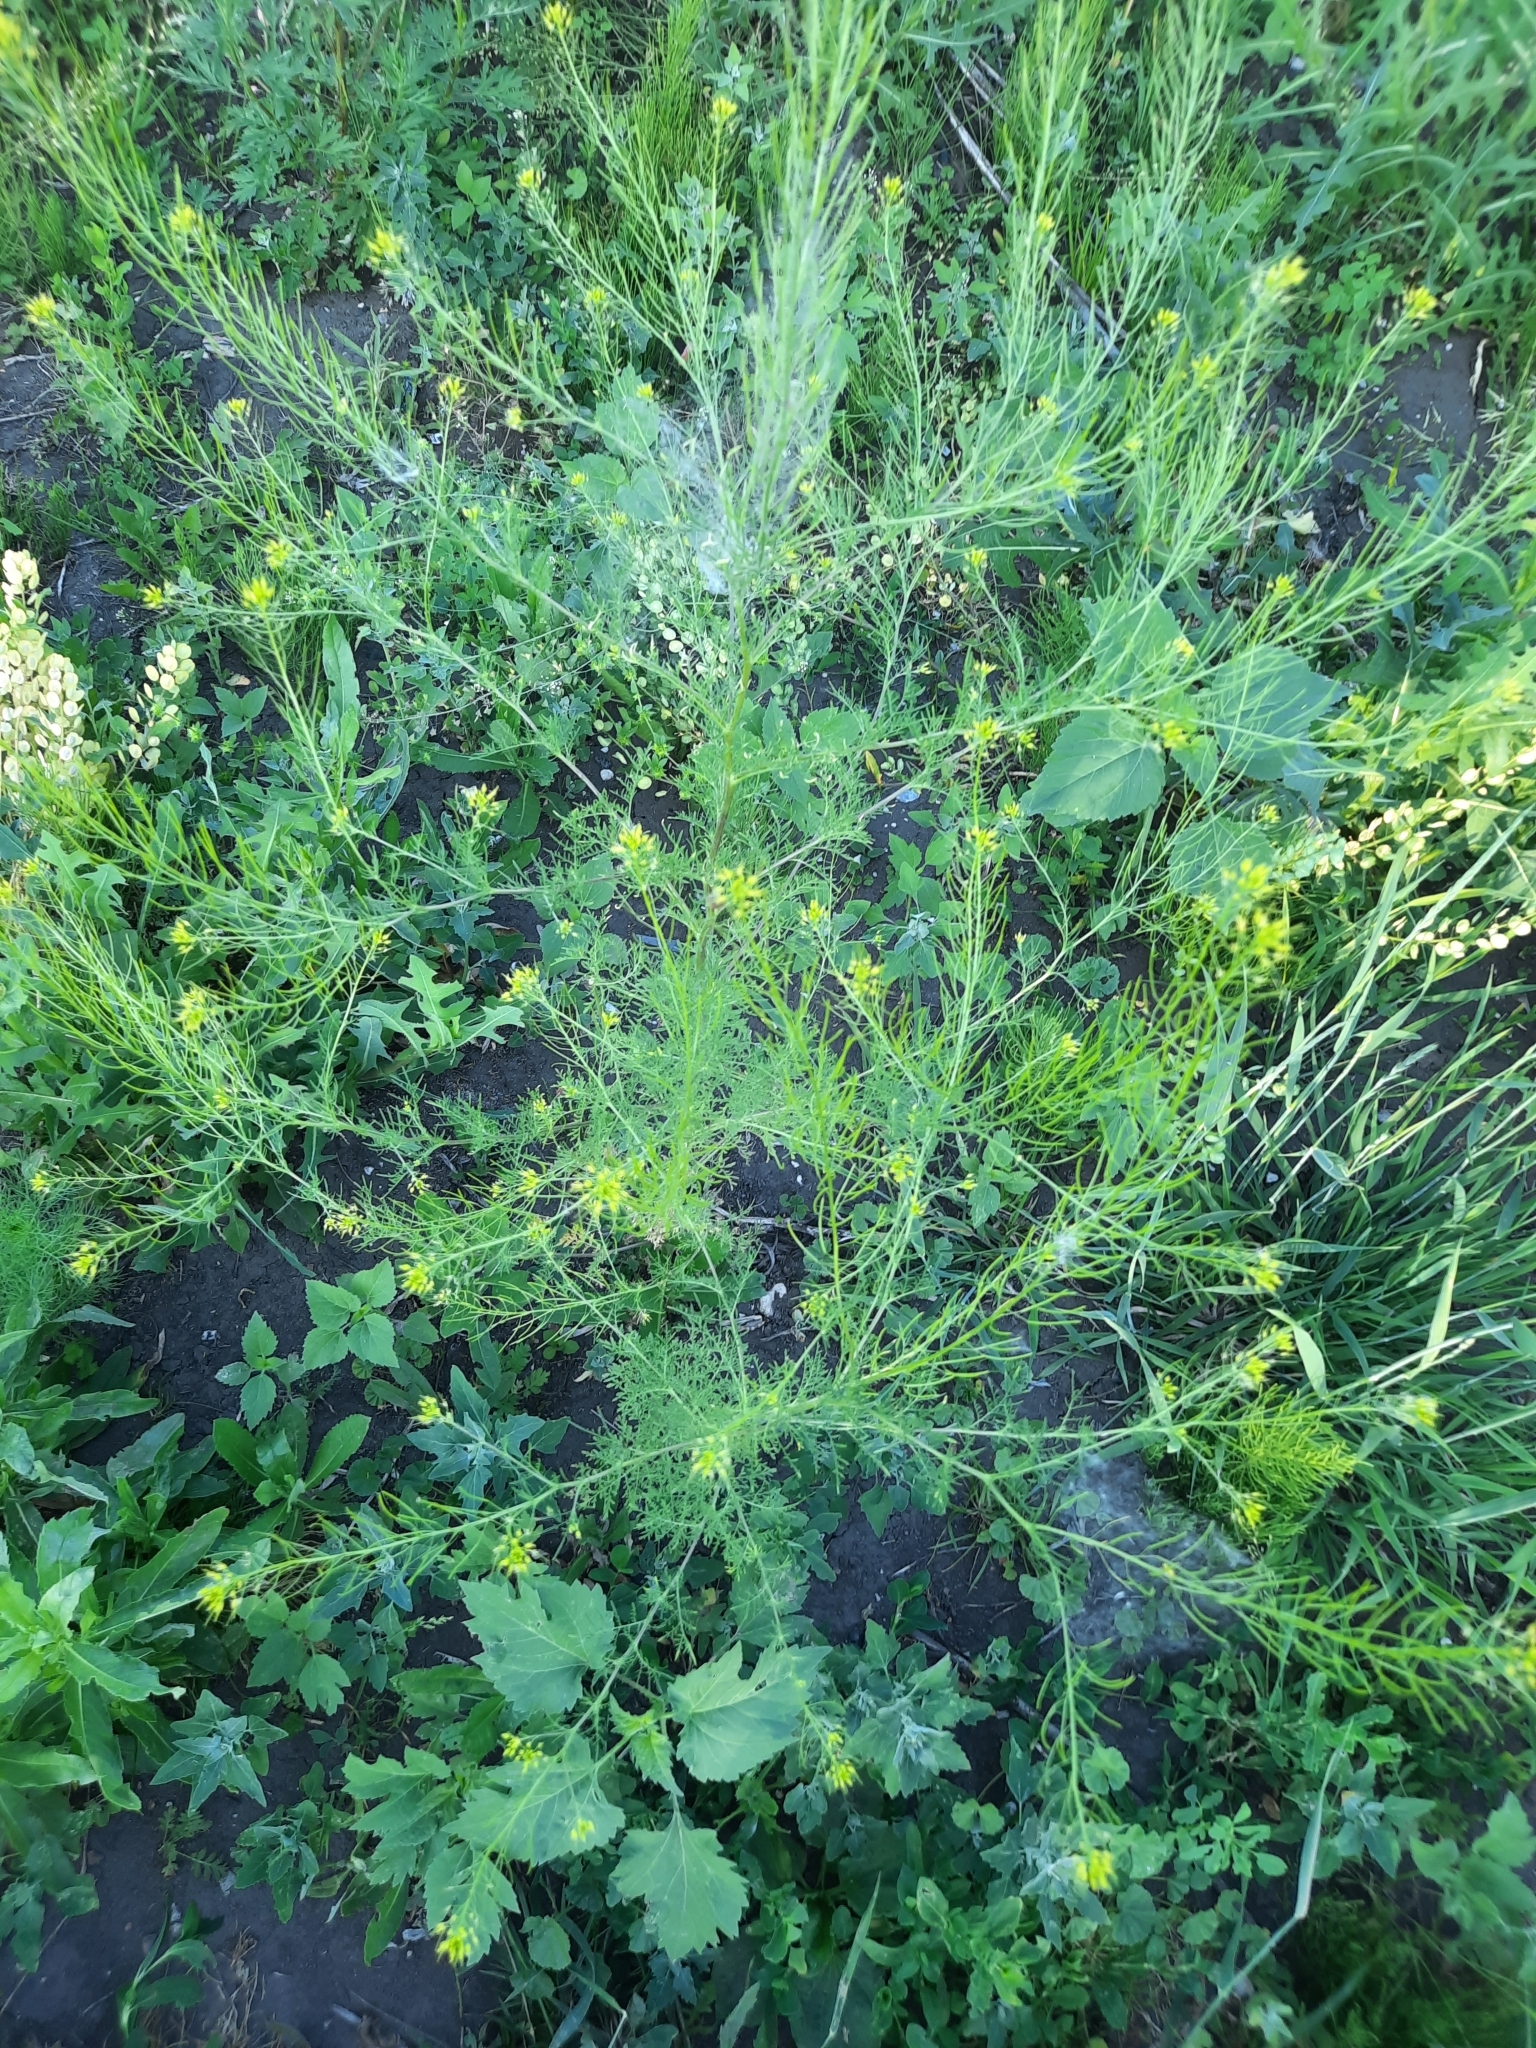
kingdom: Plantae
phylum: Tracheophyta
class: Magnoliopsida
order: Brassicales
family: Brassicaceae
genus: Descurainia
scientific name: Descurainia sophia
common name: Flixweed
